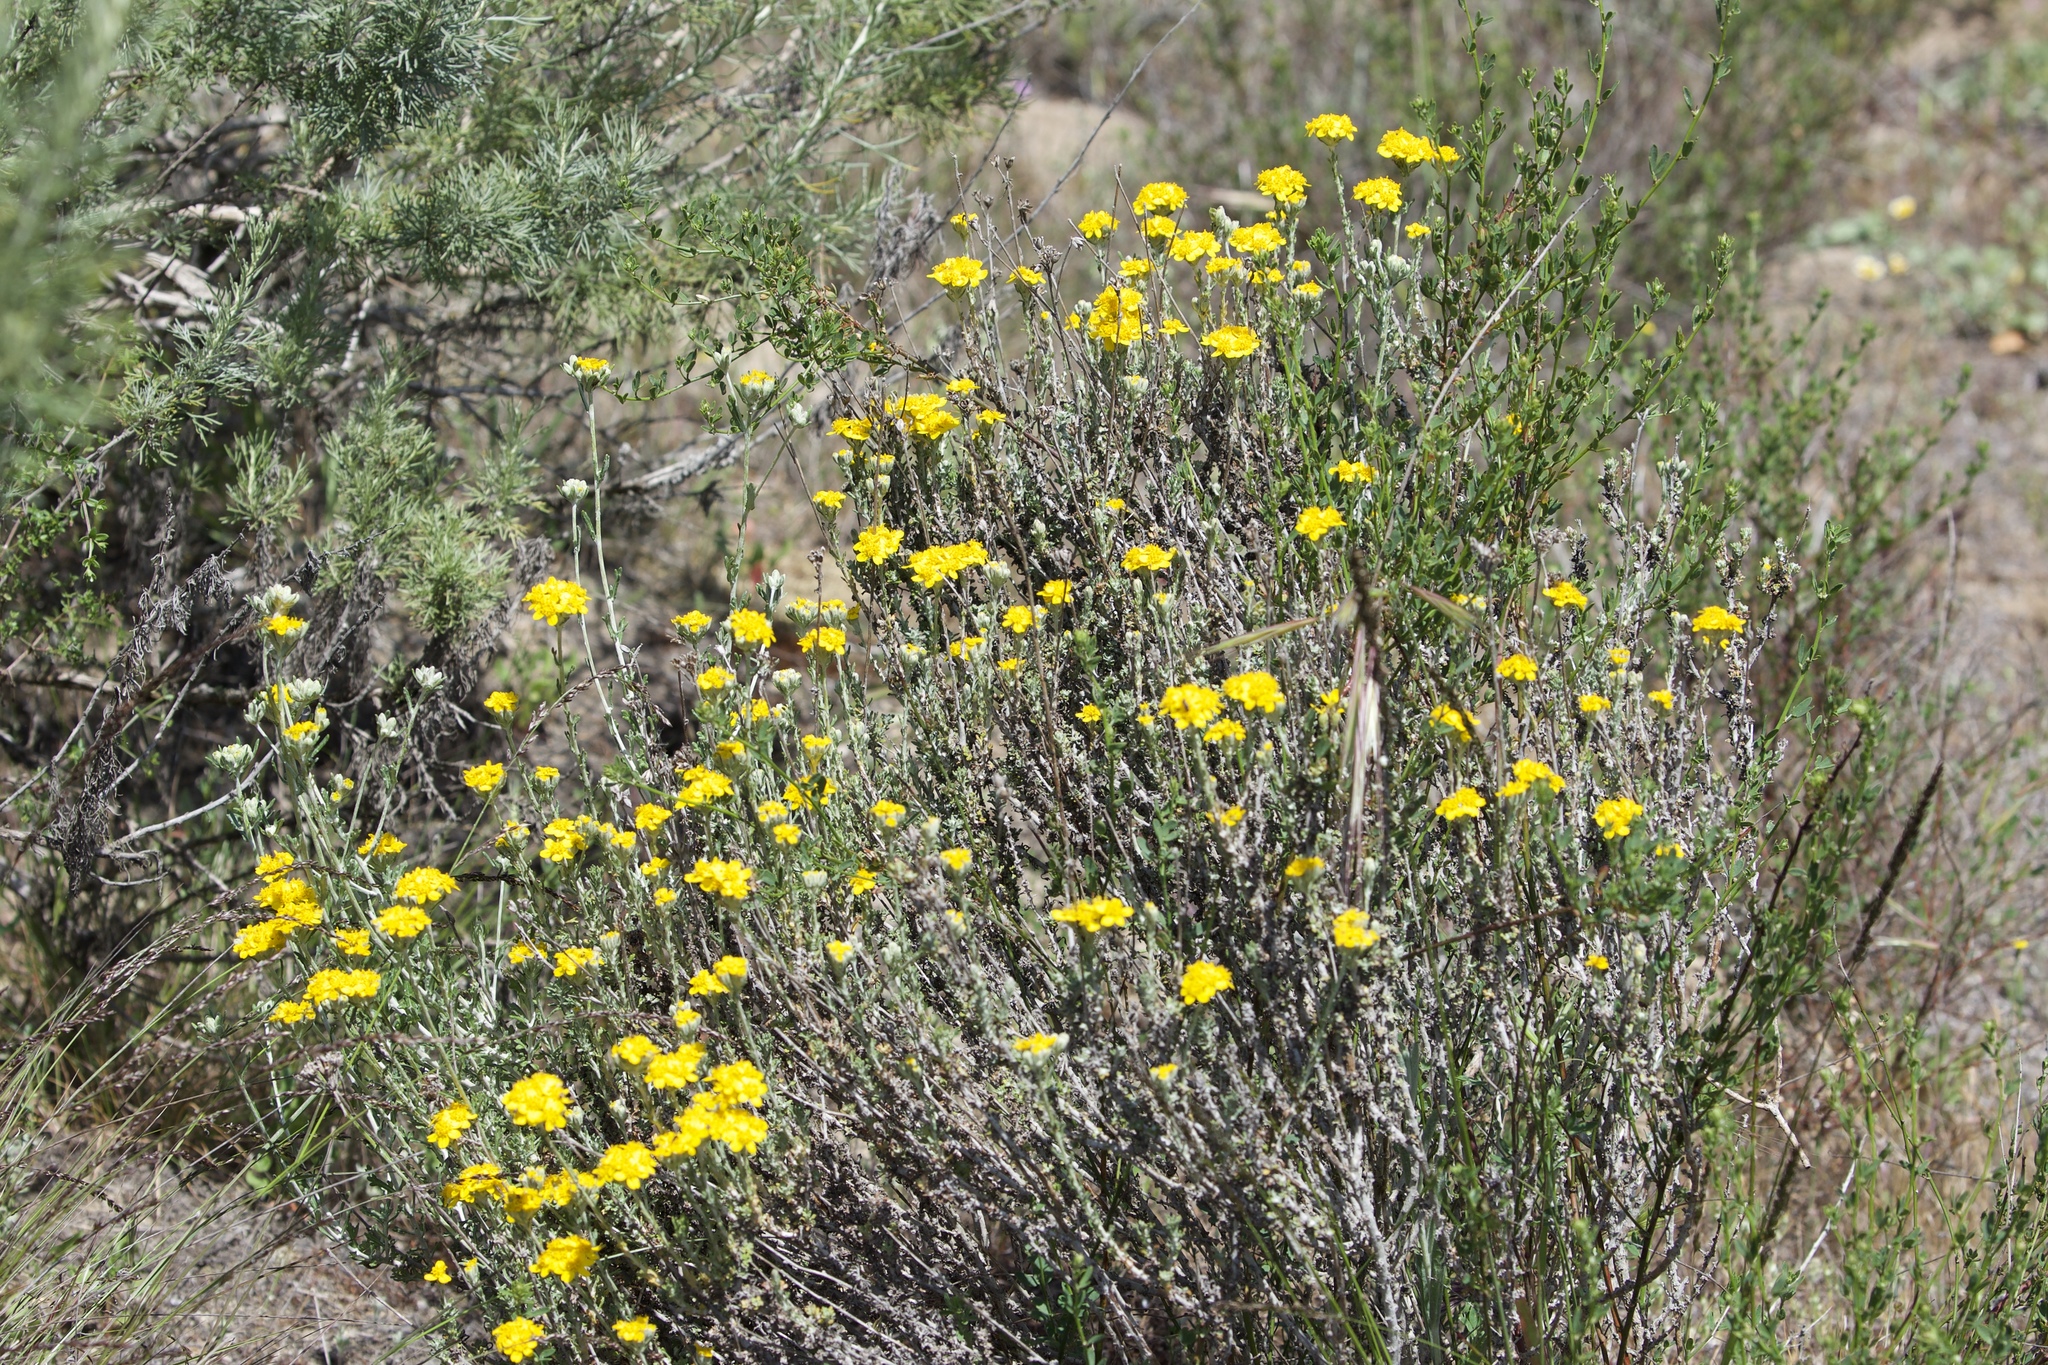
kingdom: Plantae
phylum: Tracheophyta
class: Magnoliopsida
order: Asterales
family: Asteraceae
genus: Eriophyllum
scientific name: Eriophyllum confertiflorum
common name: Golden-yarrow
